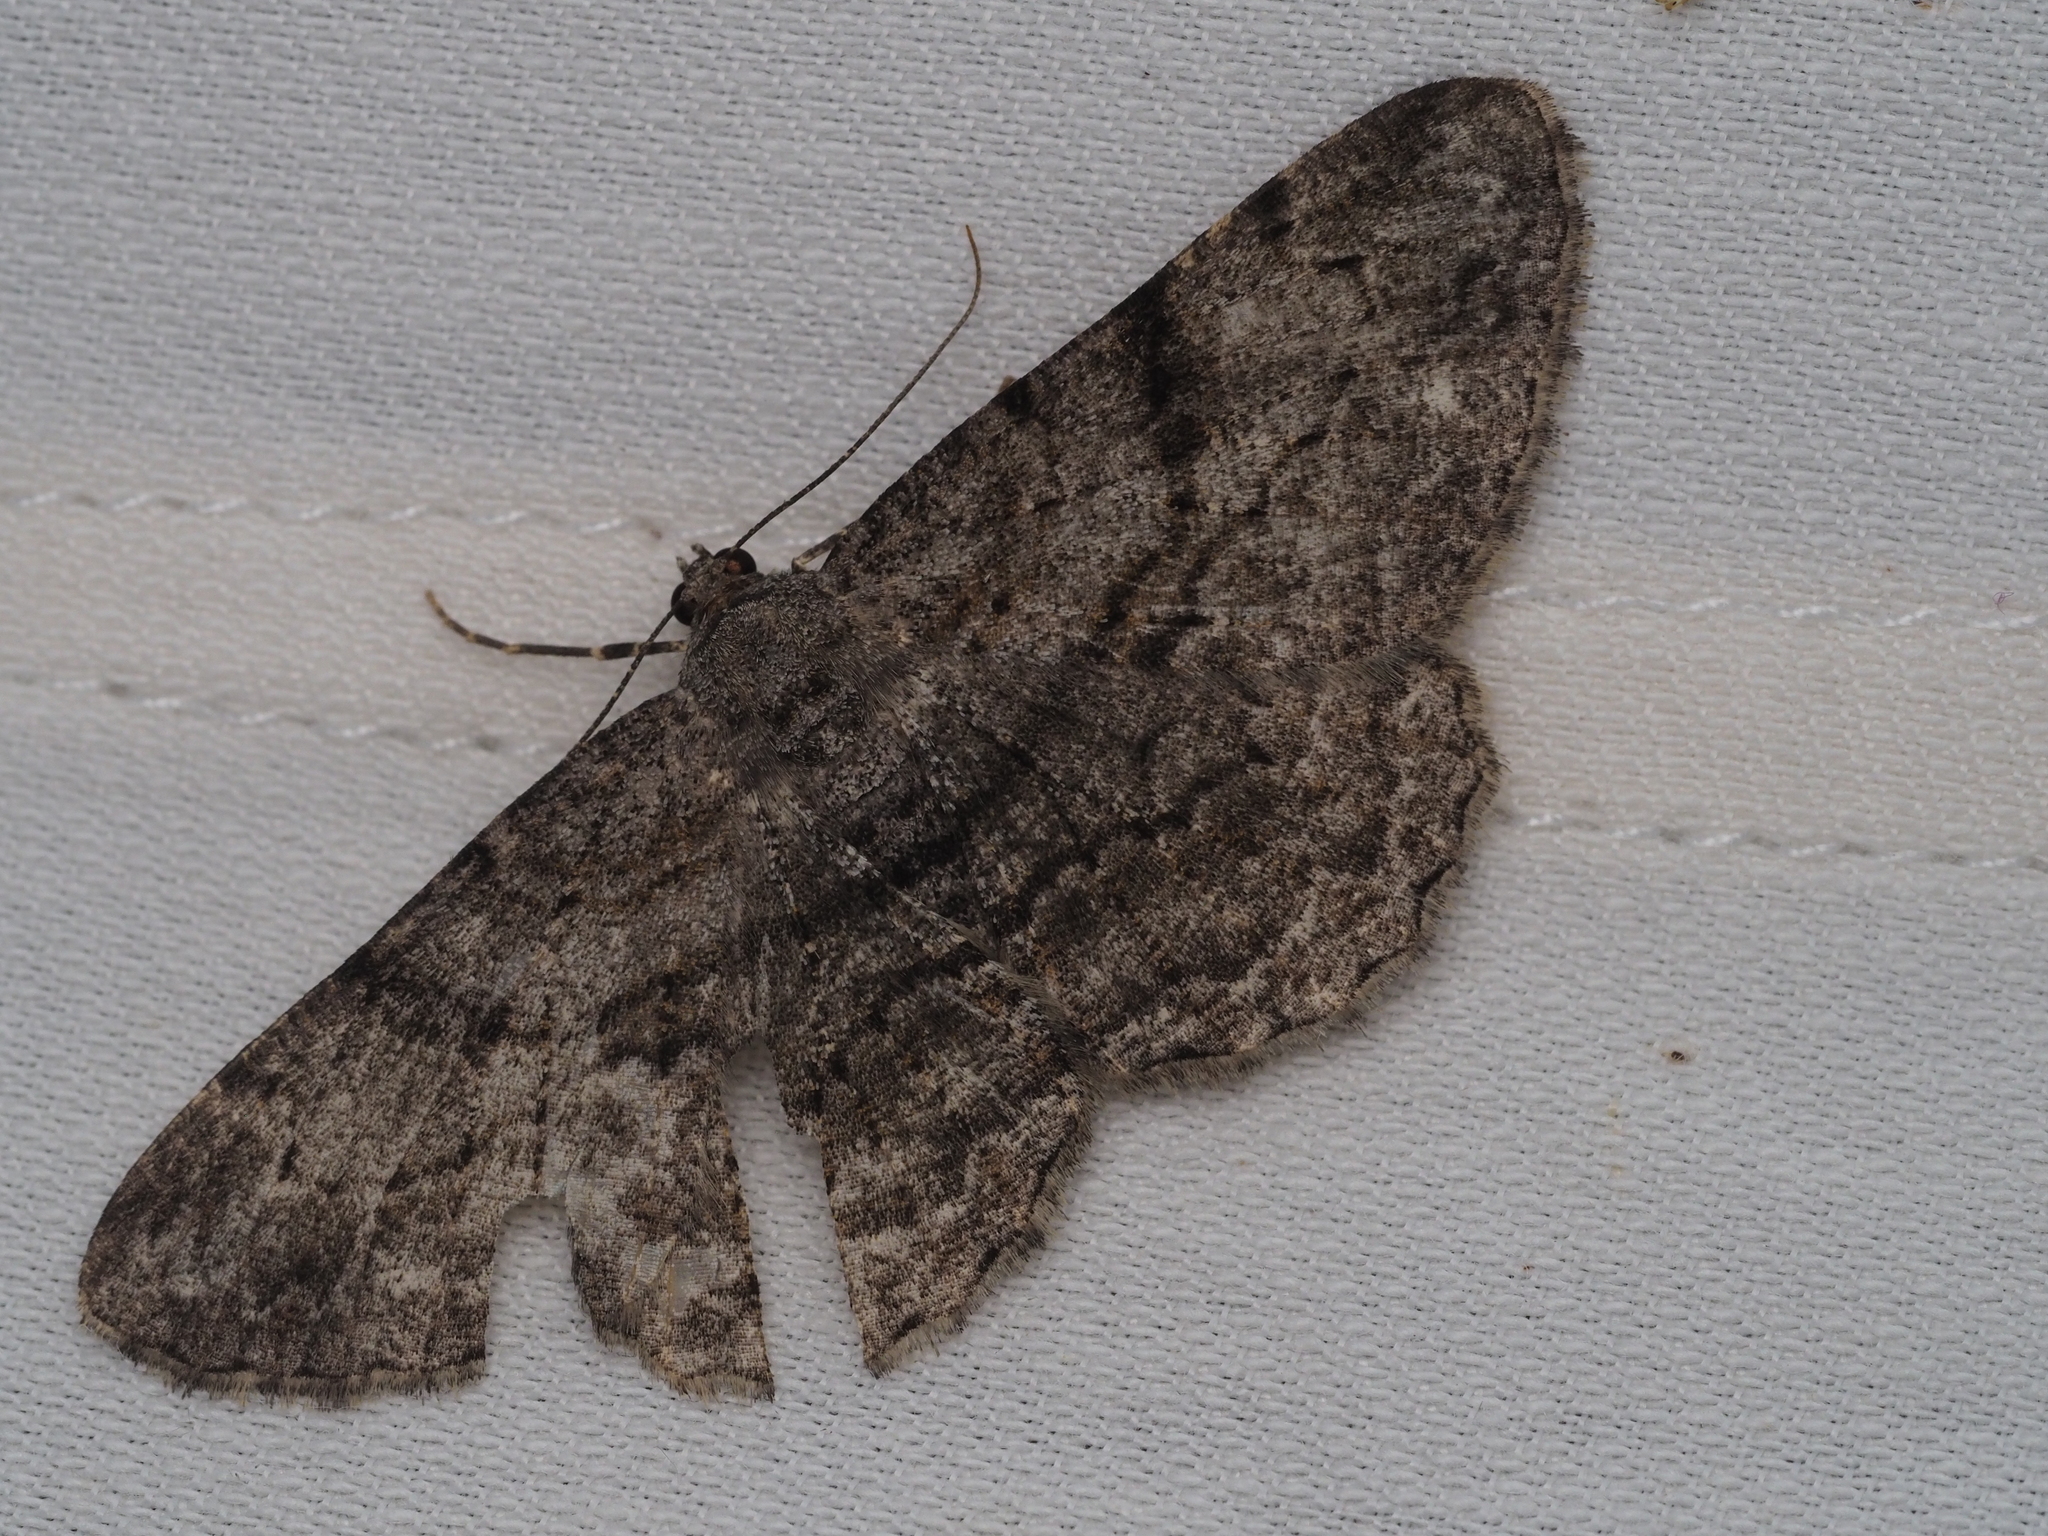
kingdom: Animalia
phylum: Arthropoda
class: Insecta
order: Lepidoptera
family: Geometridae
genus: Peribatodes
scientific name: Peribatodes rhomboidaria
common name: Willow beauty
